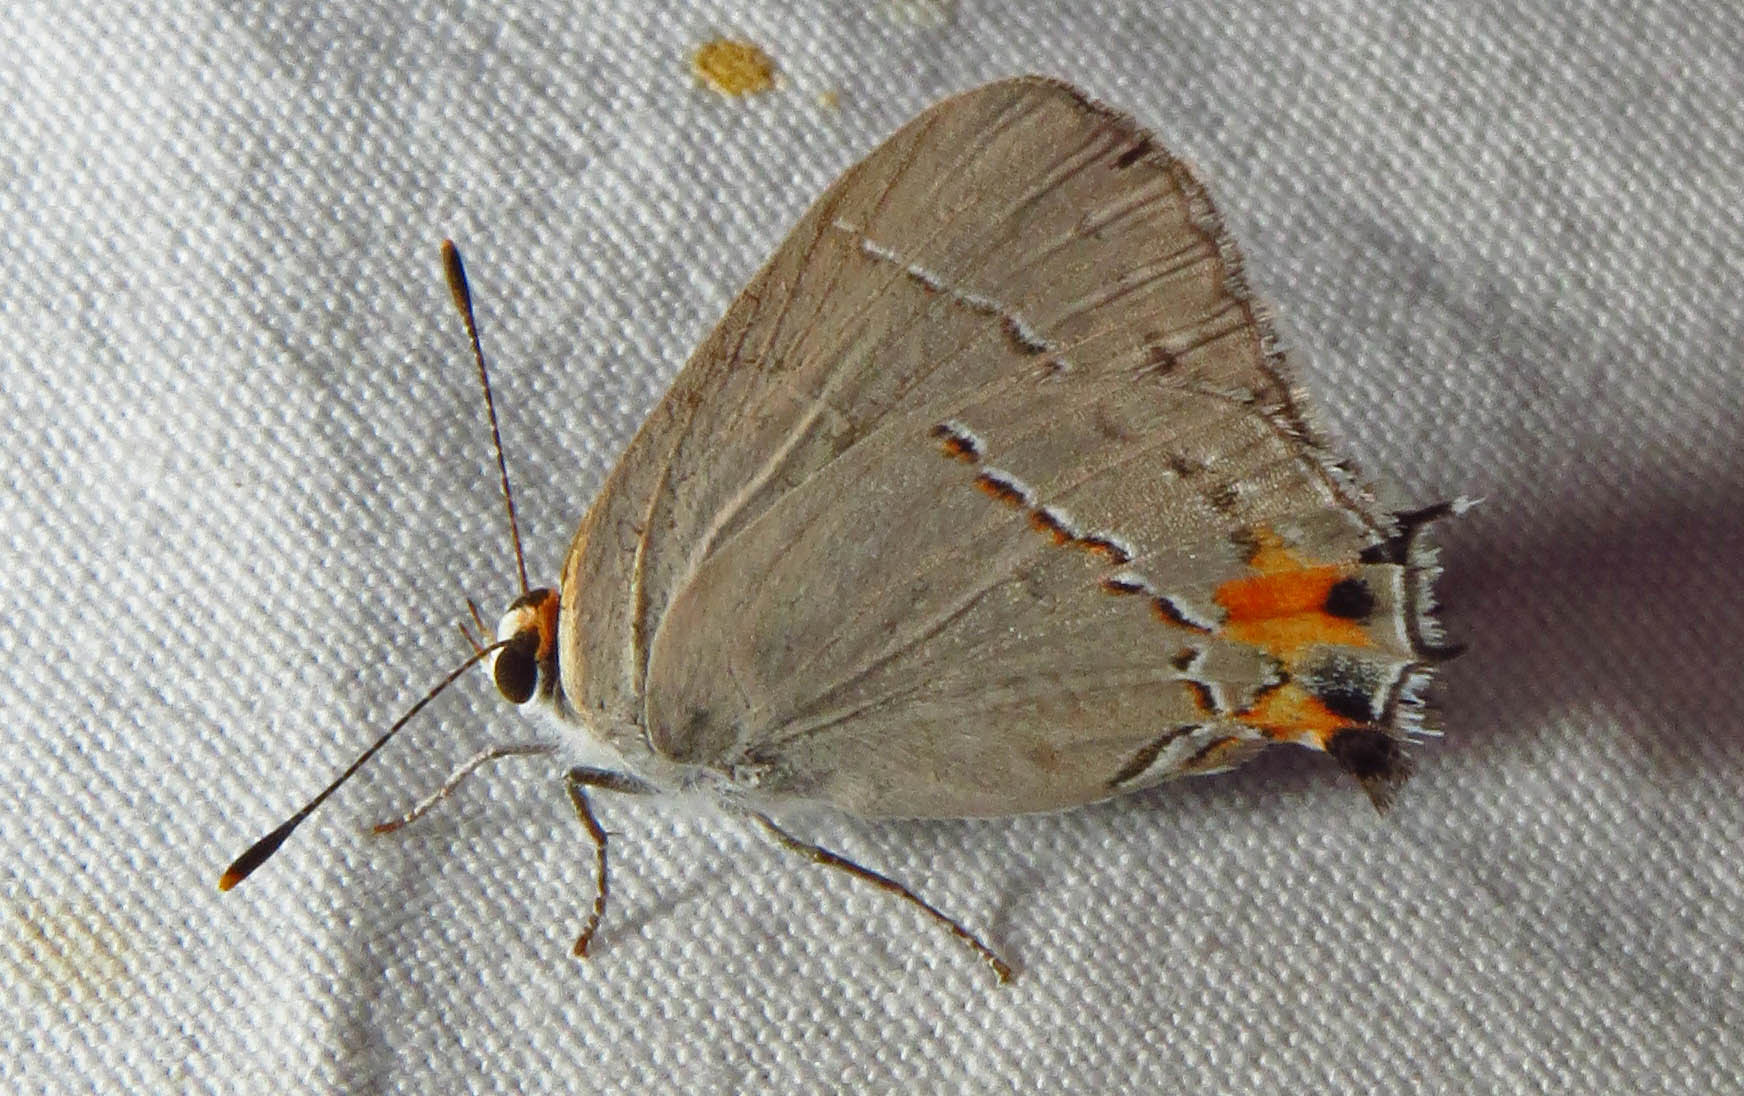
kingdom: Animalia
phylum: Arthropoda
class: Insecta
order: Lepidoptera
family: Lycaenidae
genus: Strymon
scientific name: Strymon melinus
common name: Gray hairstreak
